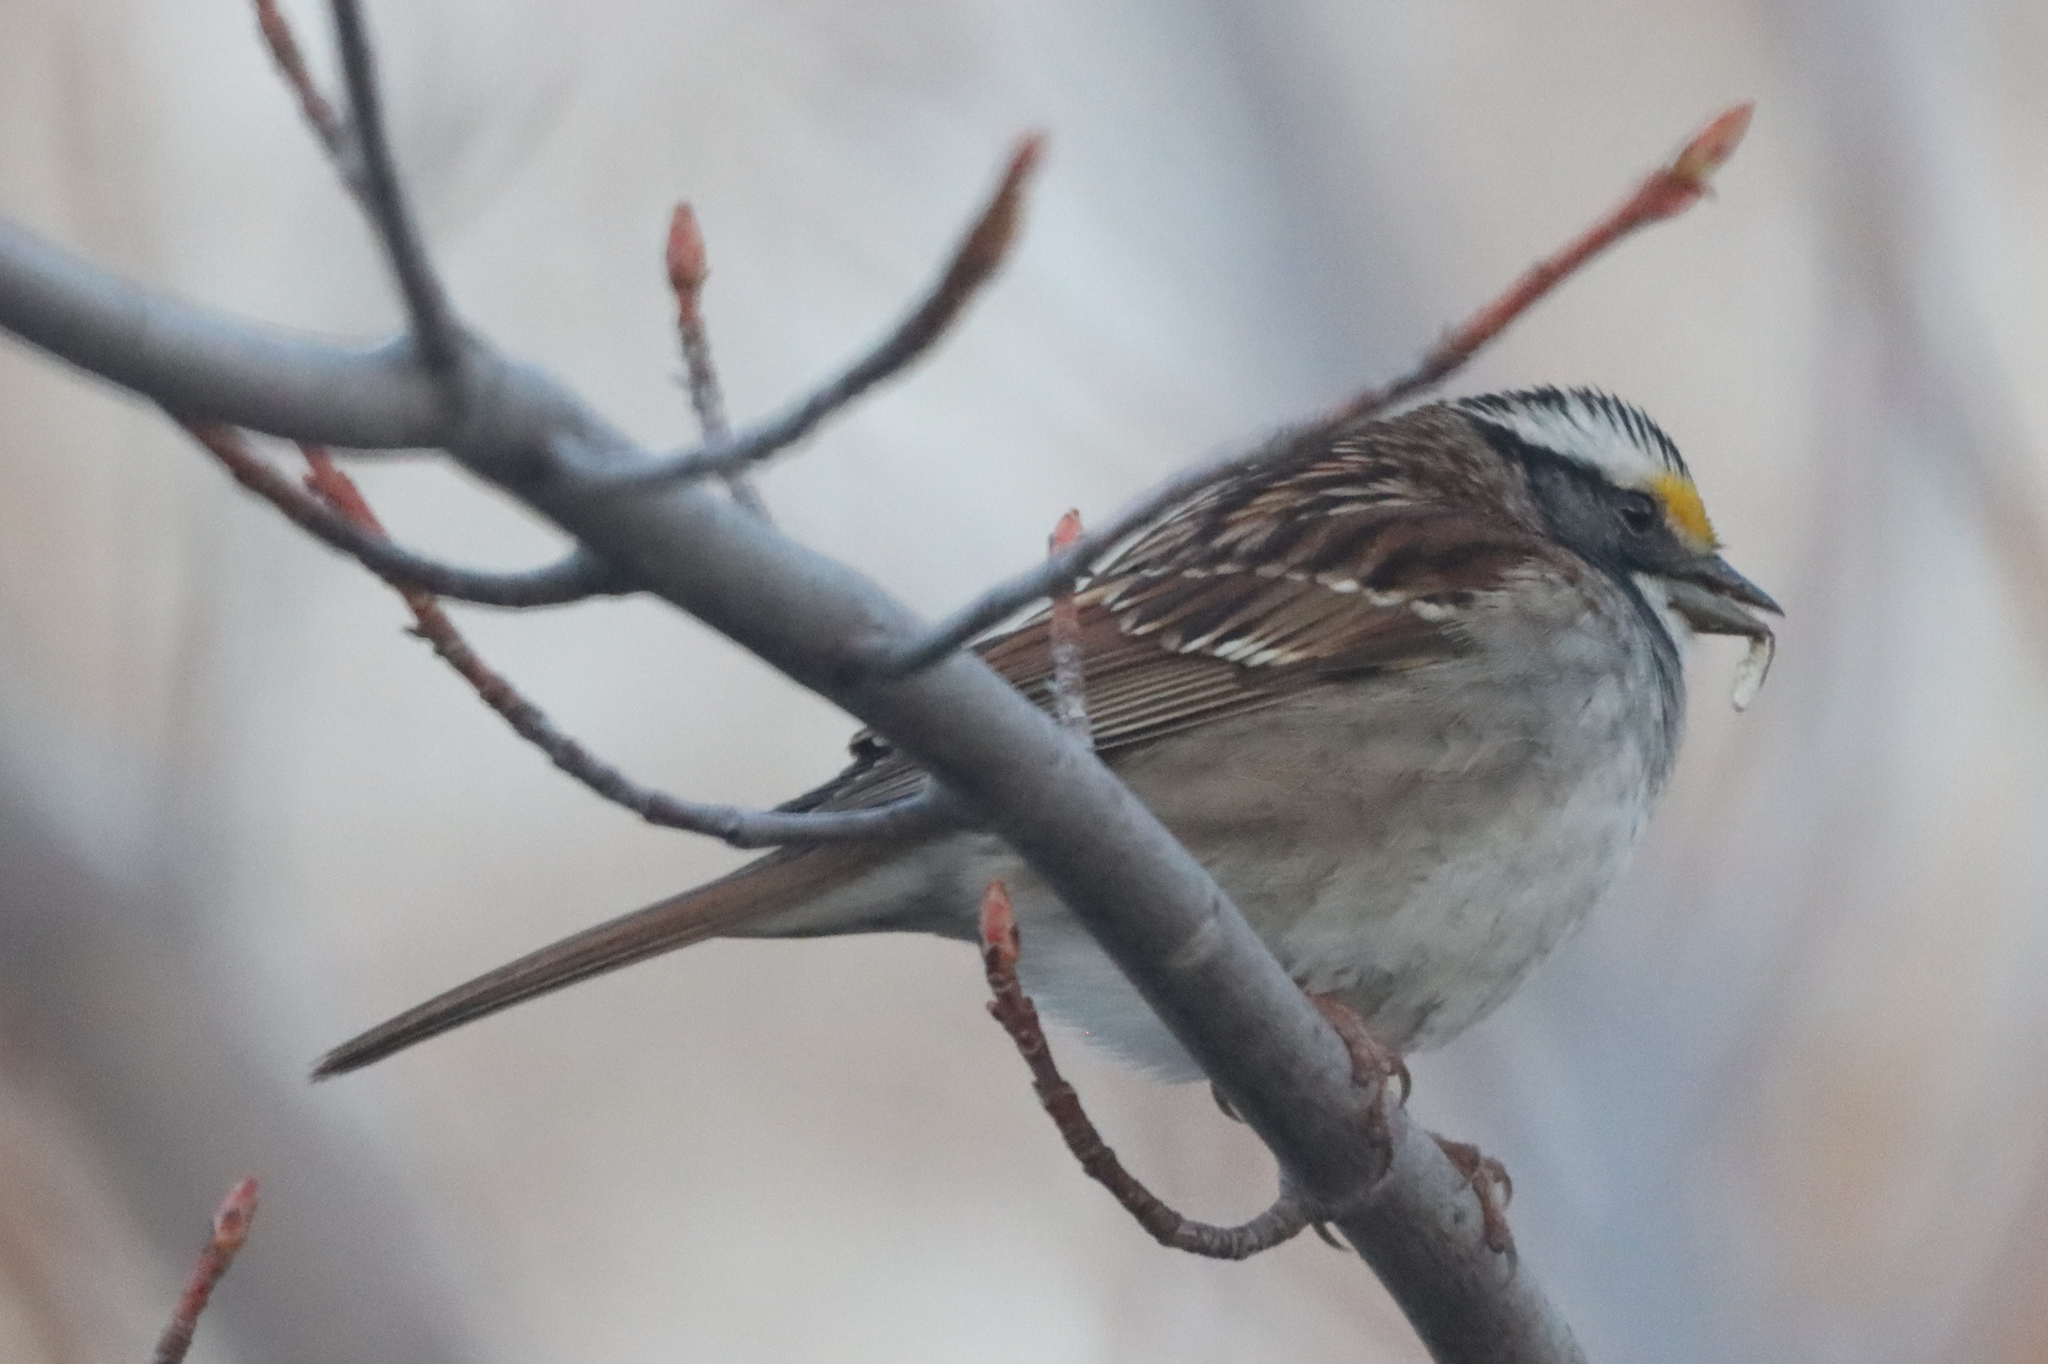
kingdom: Animalia
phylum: Chordata
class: Aves
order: Passeriformes
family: Passerellidae
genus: Zonotrichia
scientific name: Zonotrichia albicollis
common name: White-throated sparrow
